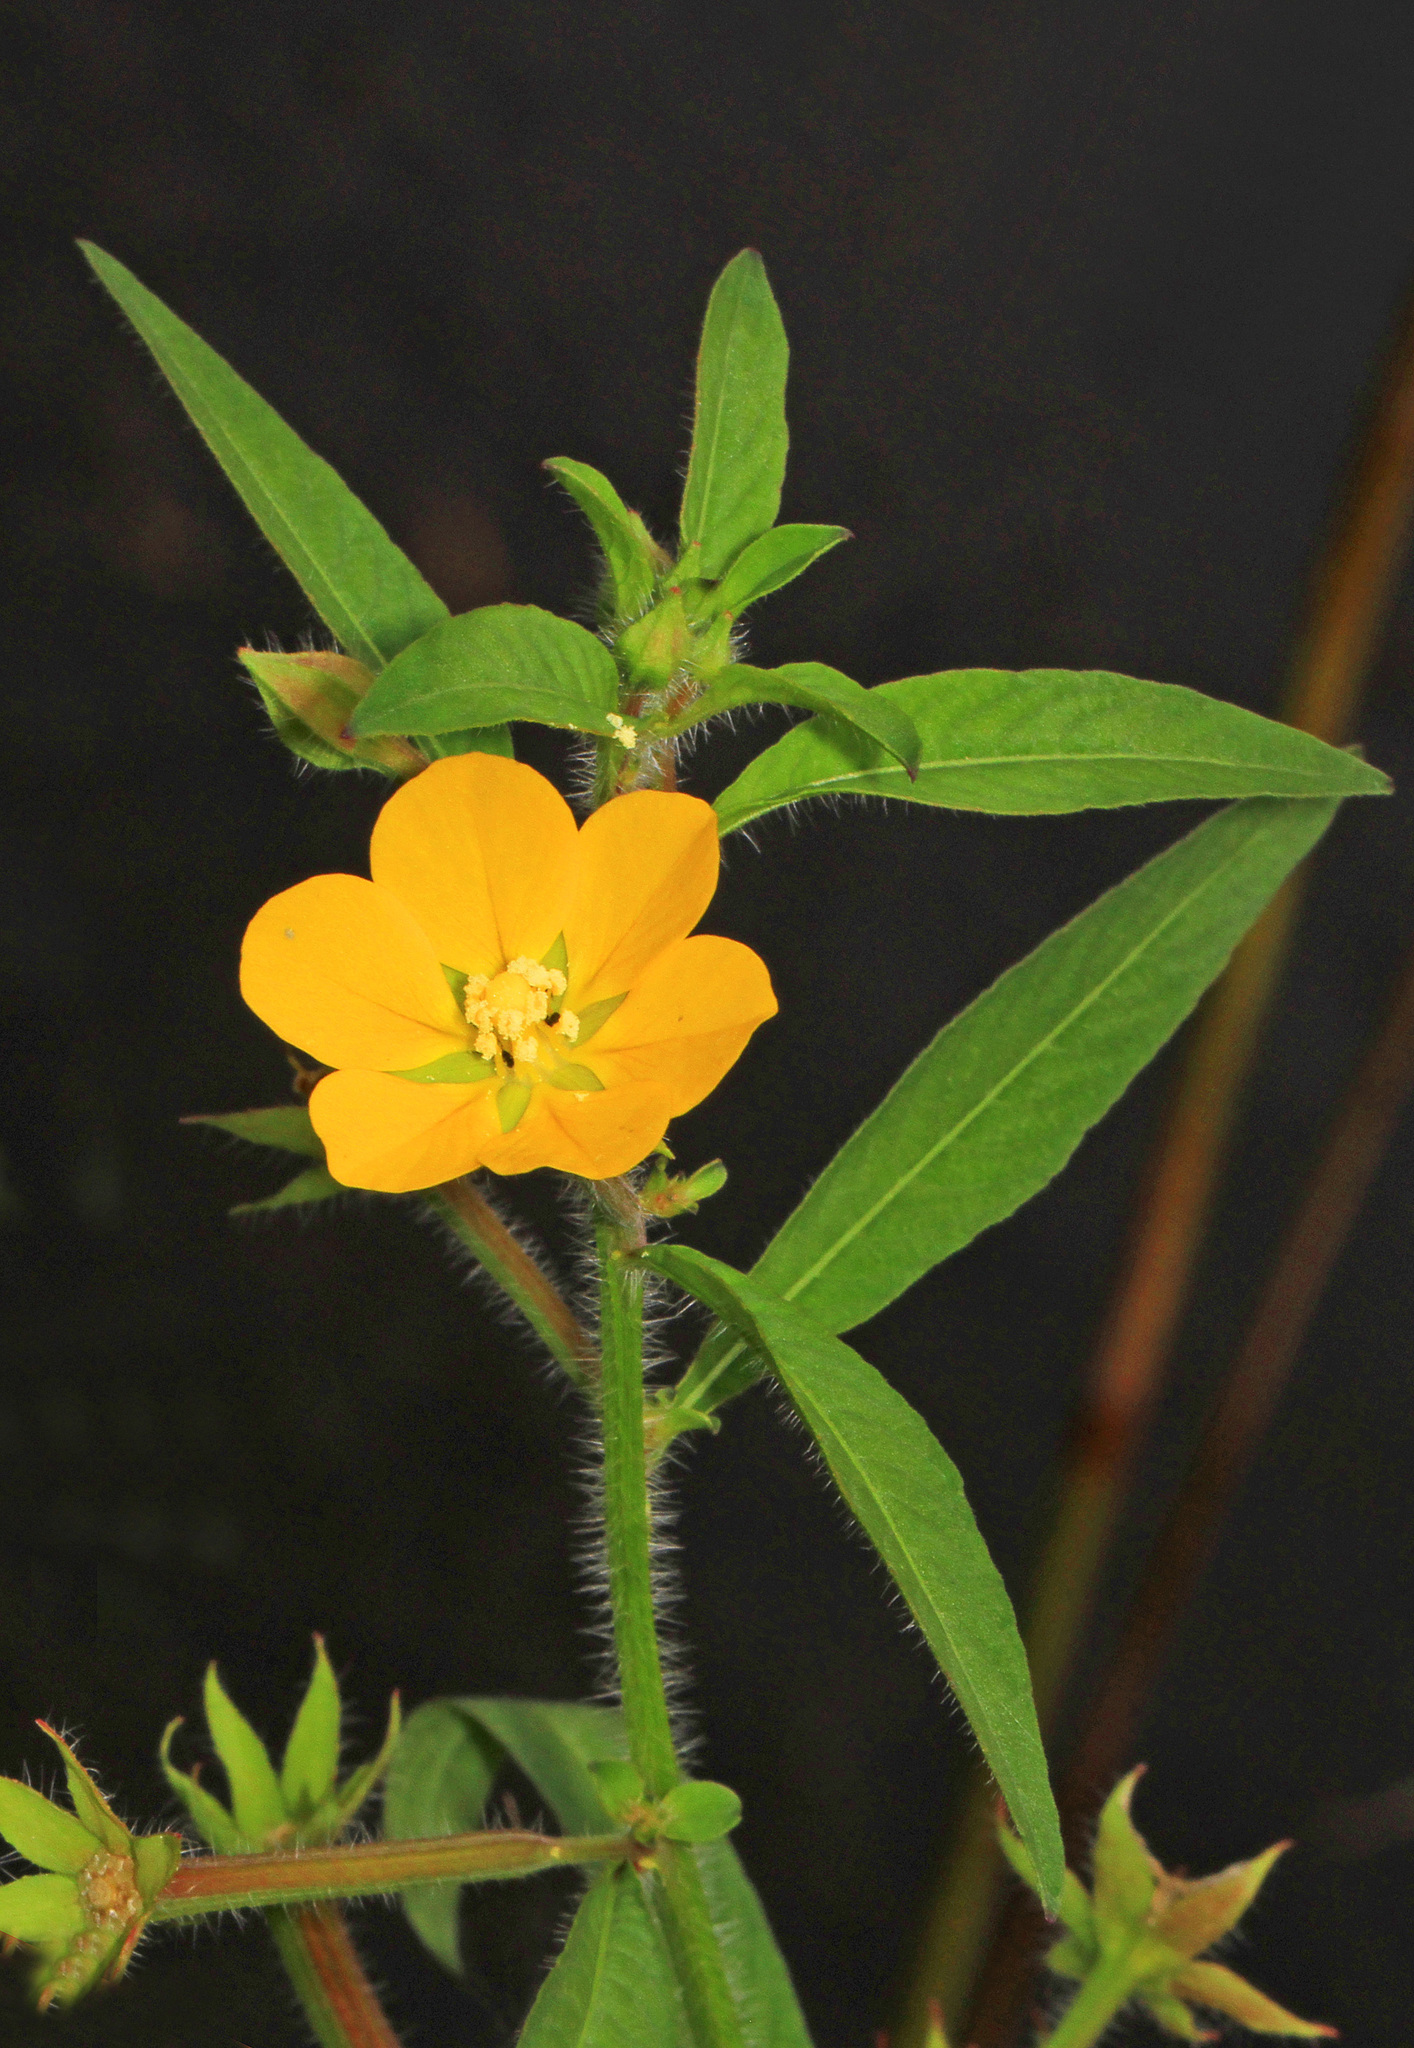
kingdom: Plantae
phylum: Tracheophyta
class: Magnoliopsida
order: Myrtales
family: Onagraceae
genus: Ludwigia
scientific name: Ludwigia leptocarpa
